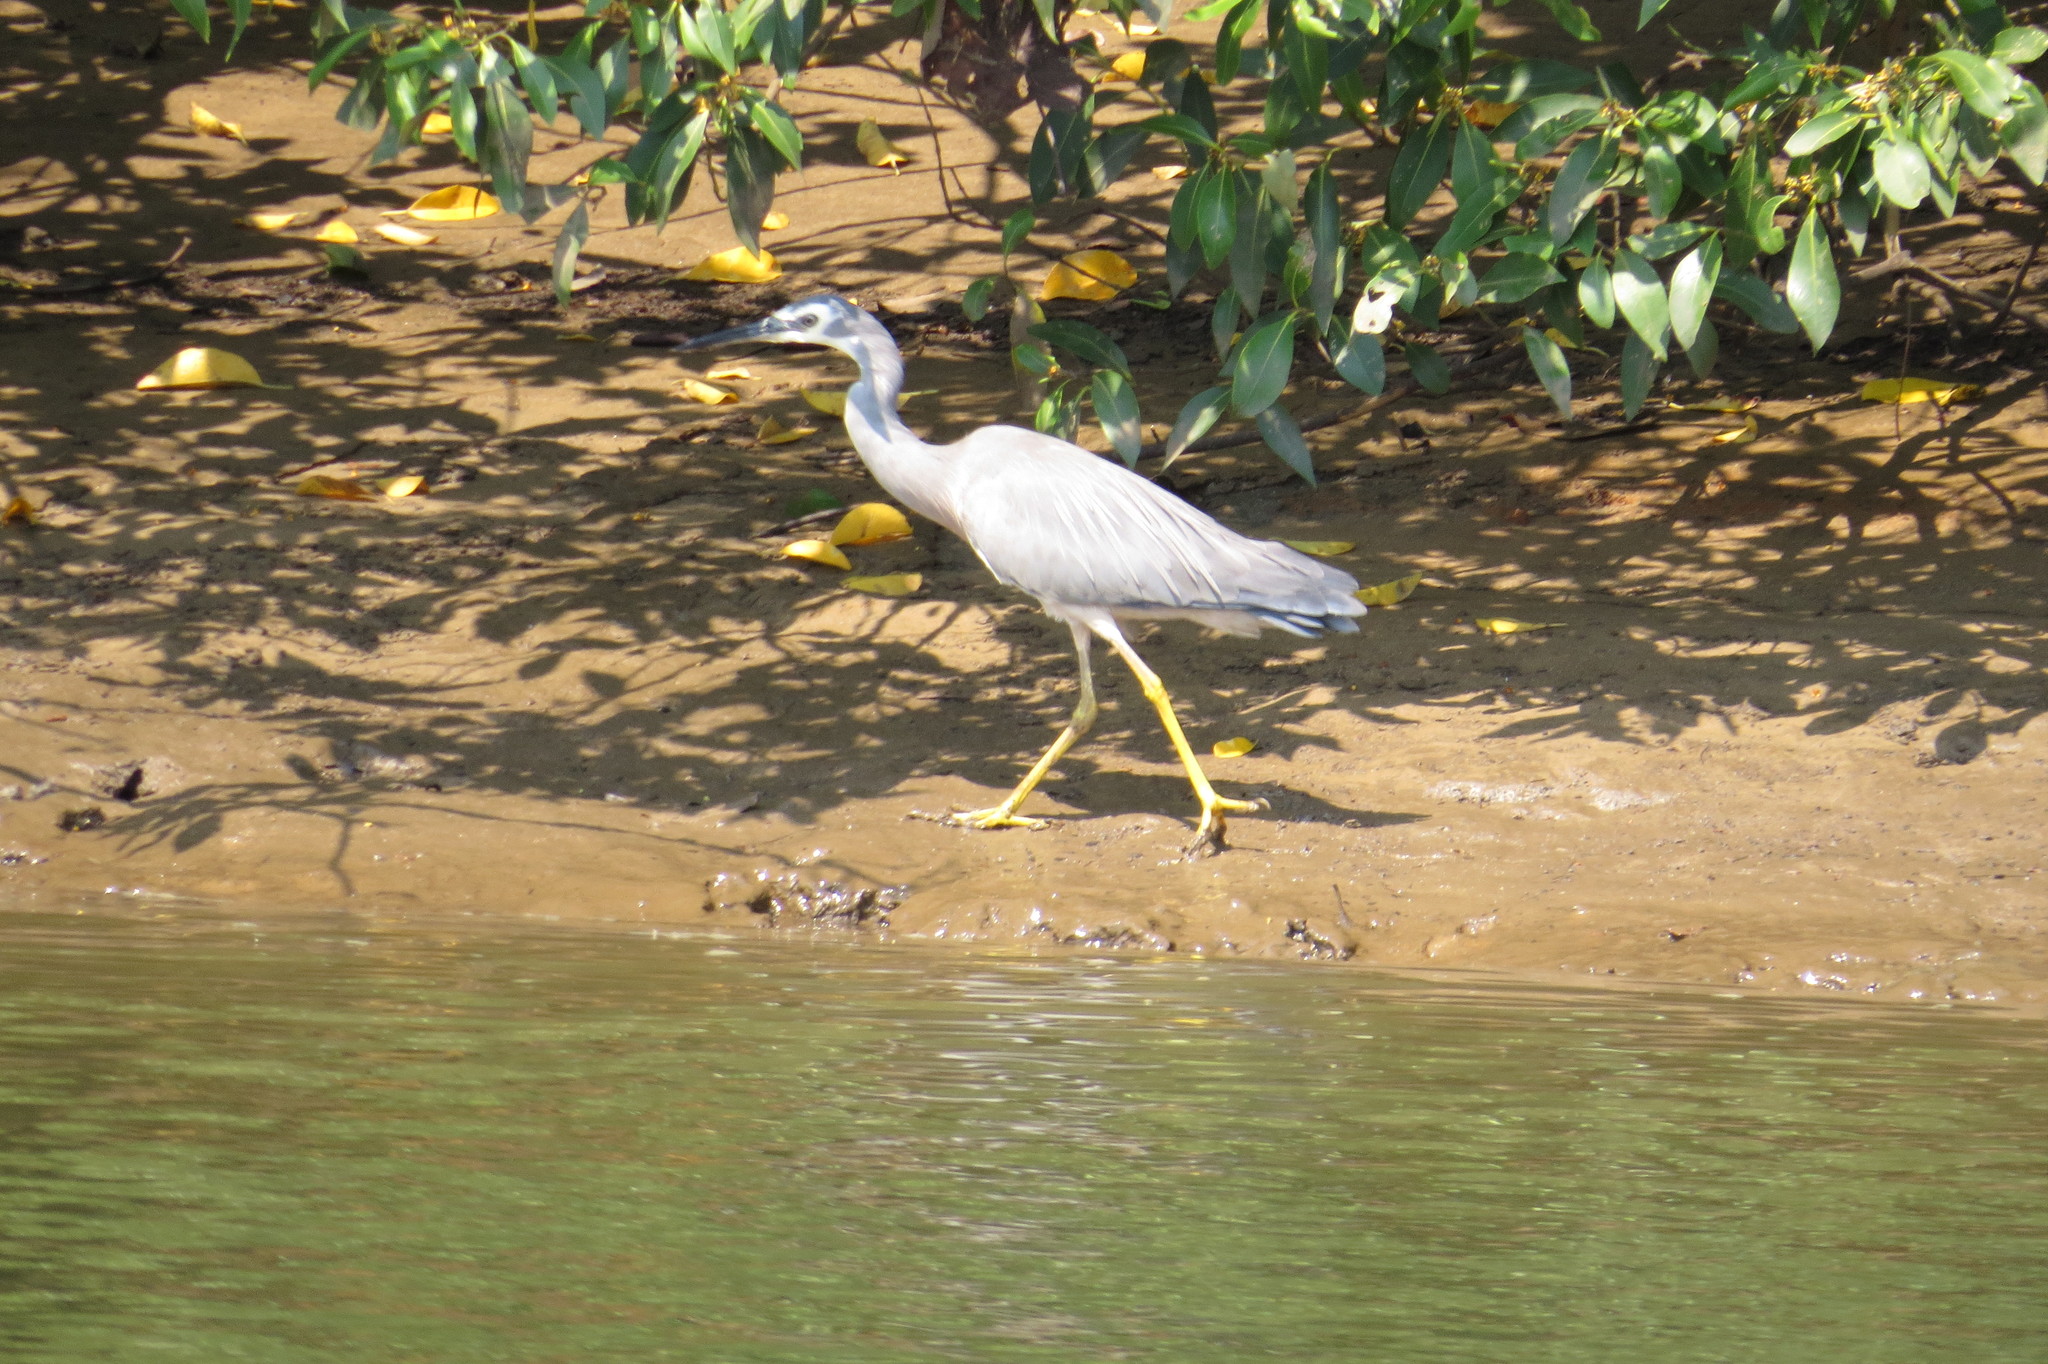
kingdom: Animalia
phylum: Chordata
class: Aves
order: Pelecaniformes
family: Ardeidae
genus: Egretta
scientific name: Egretta novaehollandiae
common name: White-faced heron
